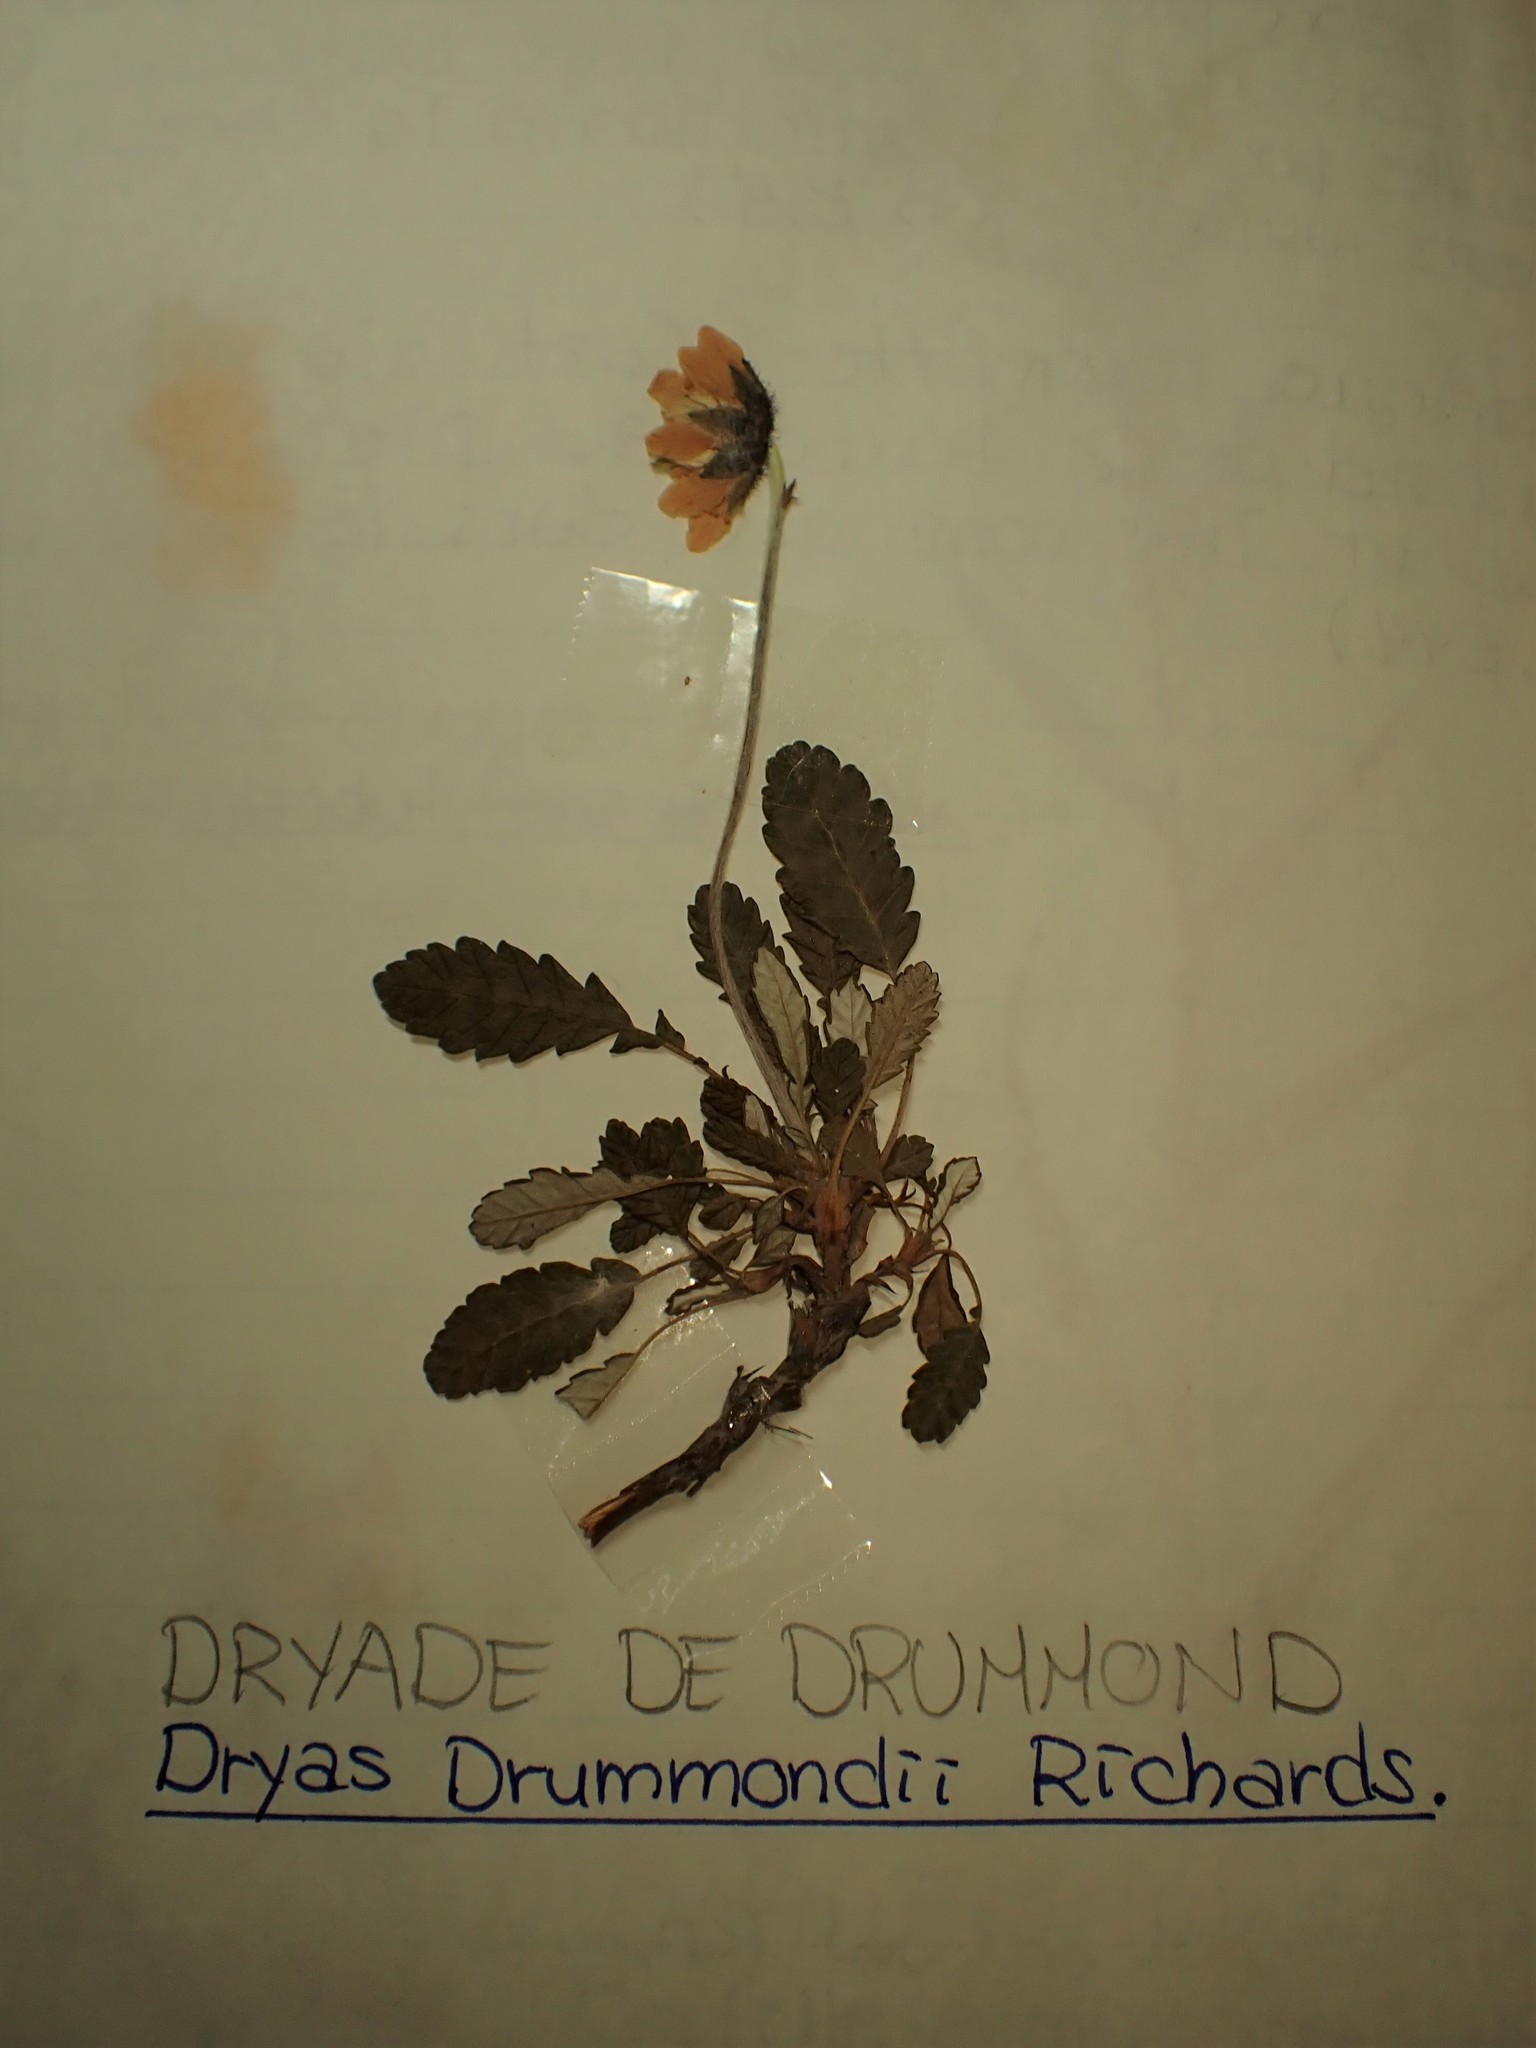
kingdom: Plantae
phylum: Tracheophyta
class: Magnoliopsida
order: Rosales
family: Rosaceae
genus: Dryas
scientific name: Dryas drummondii
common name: Drummond's dryad
